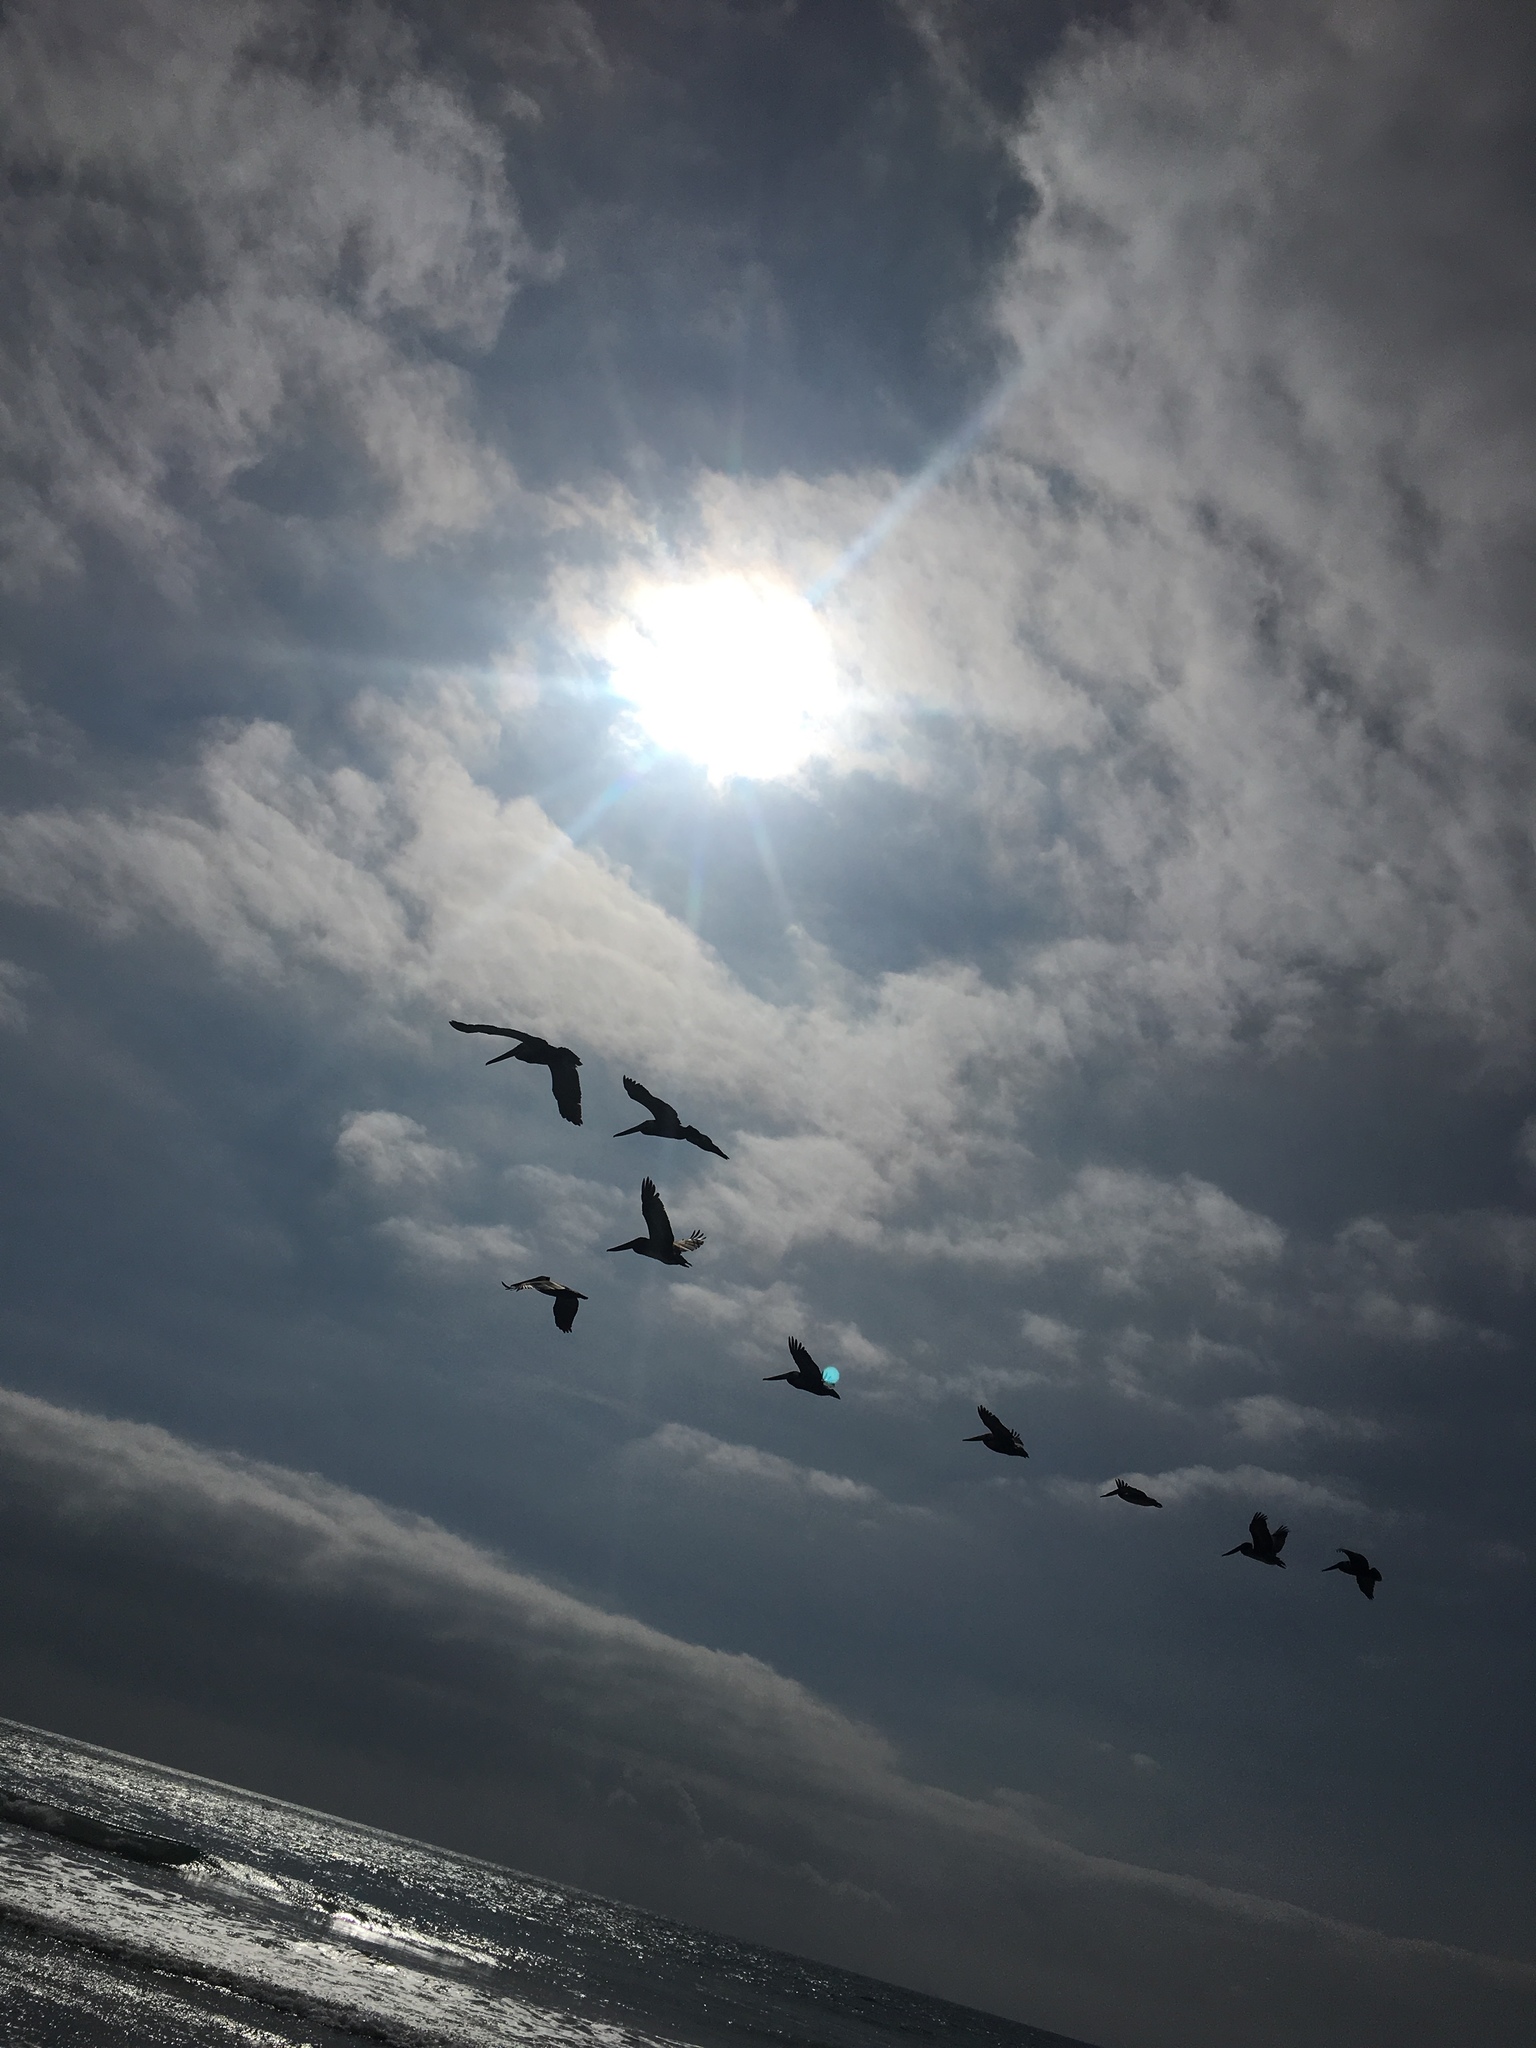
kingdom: Animalia
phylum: Chordata
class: Aves
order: Pelecaniformes
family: Pelecanidae
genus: Pelecanus
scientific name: Pelecanus occidentalis
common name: Brown pelican
